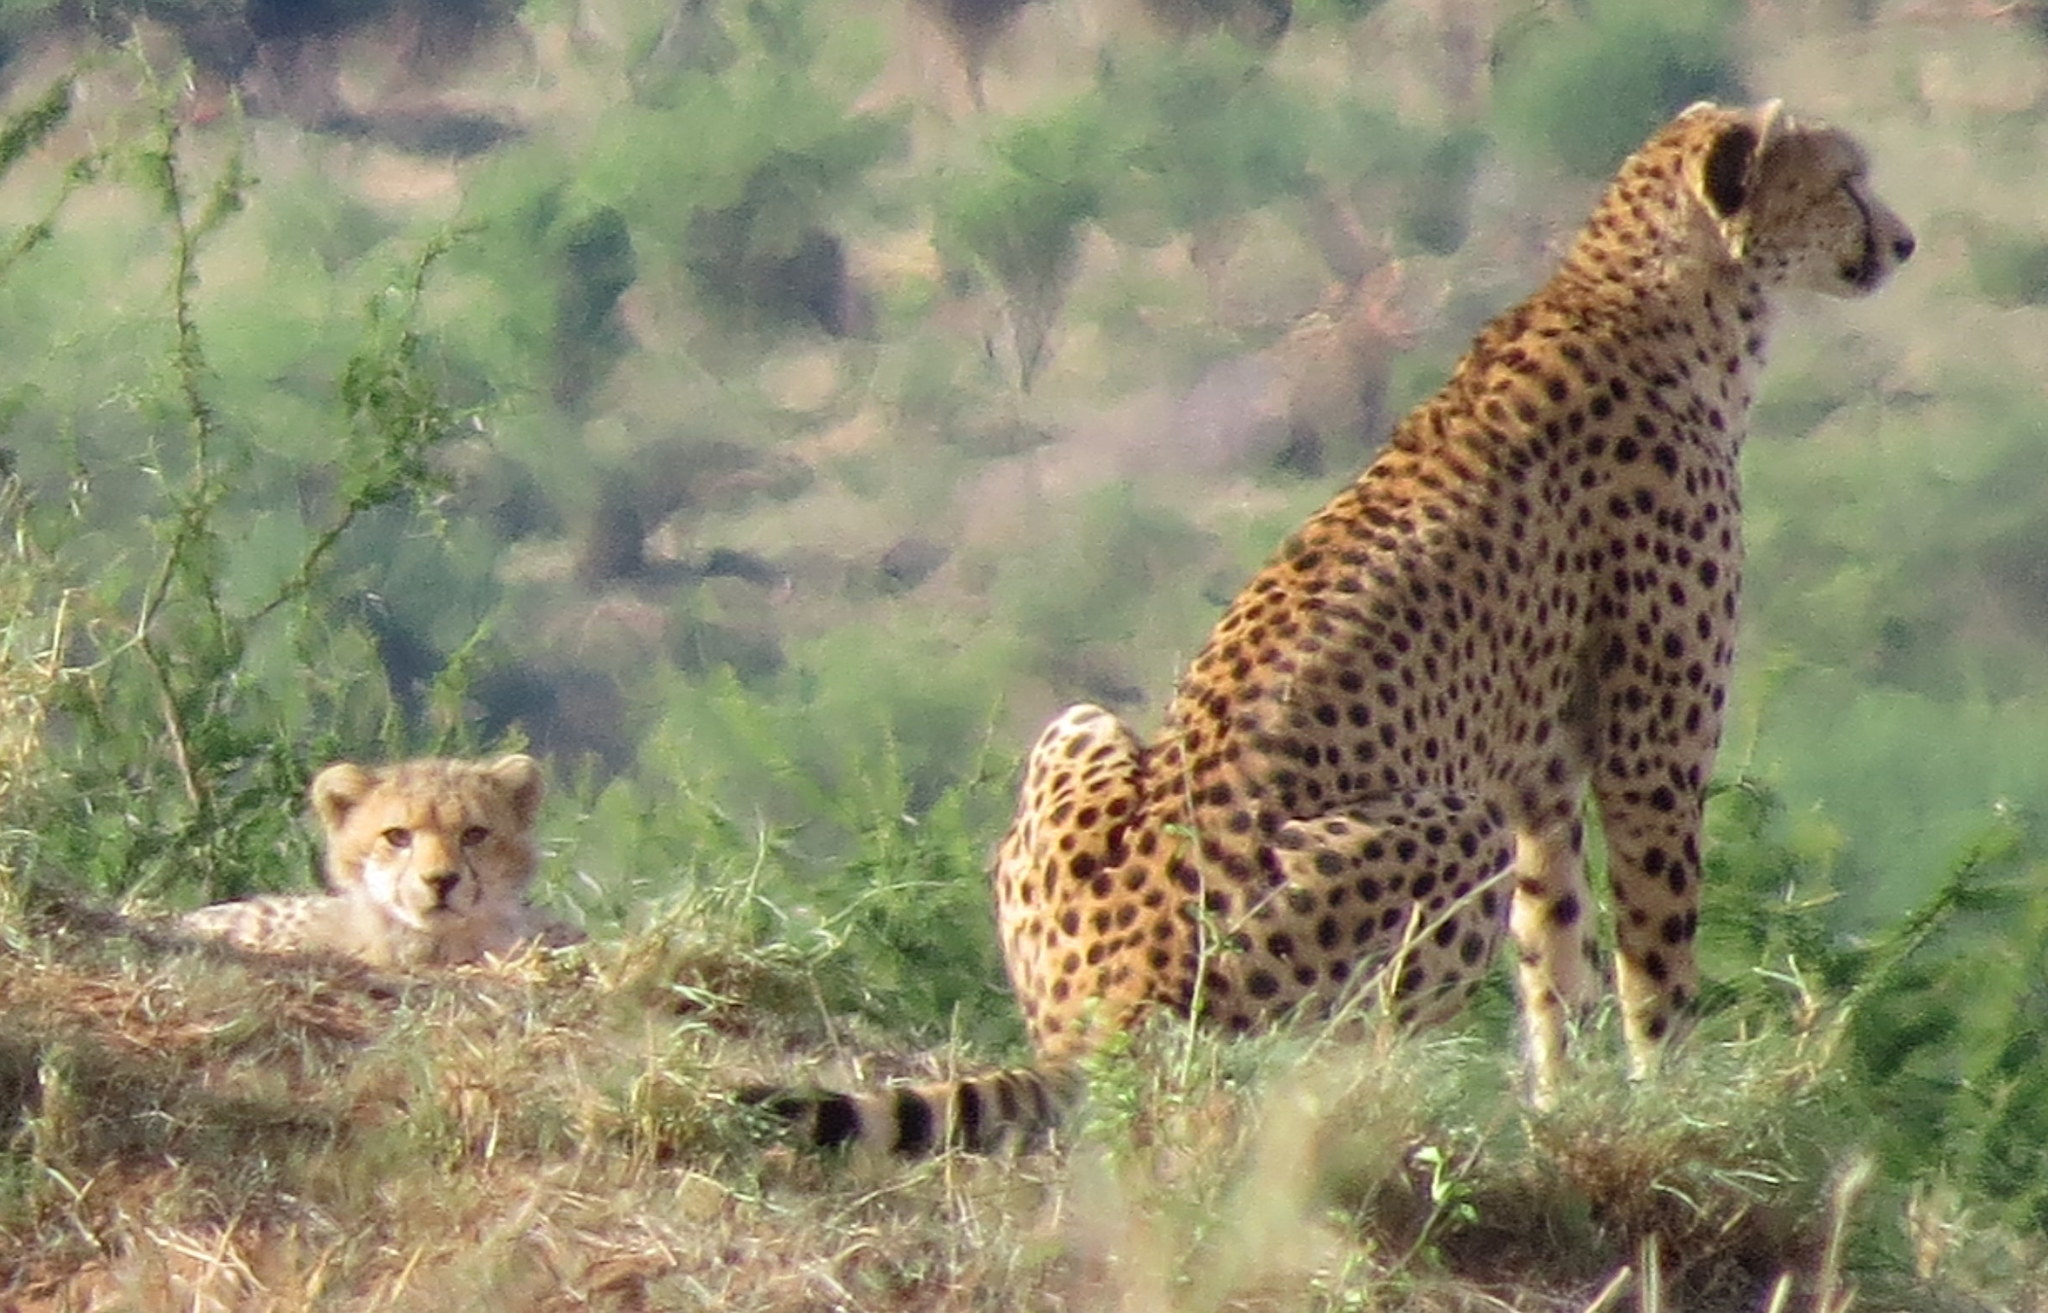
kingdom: Animalia
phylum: Chordata
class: Mammalia
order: Carnivora
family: Felidae
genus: Acinonyx
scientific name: Acinonyx jubatus
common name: Cheetah
